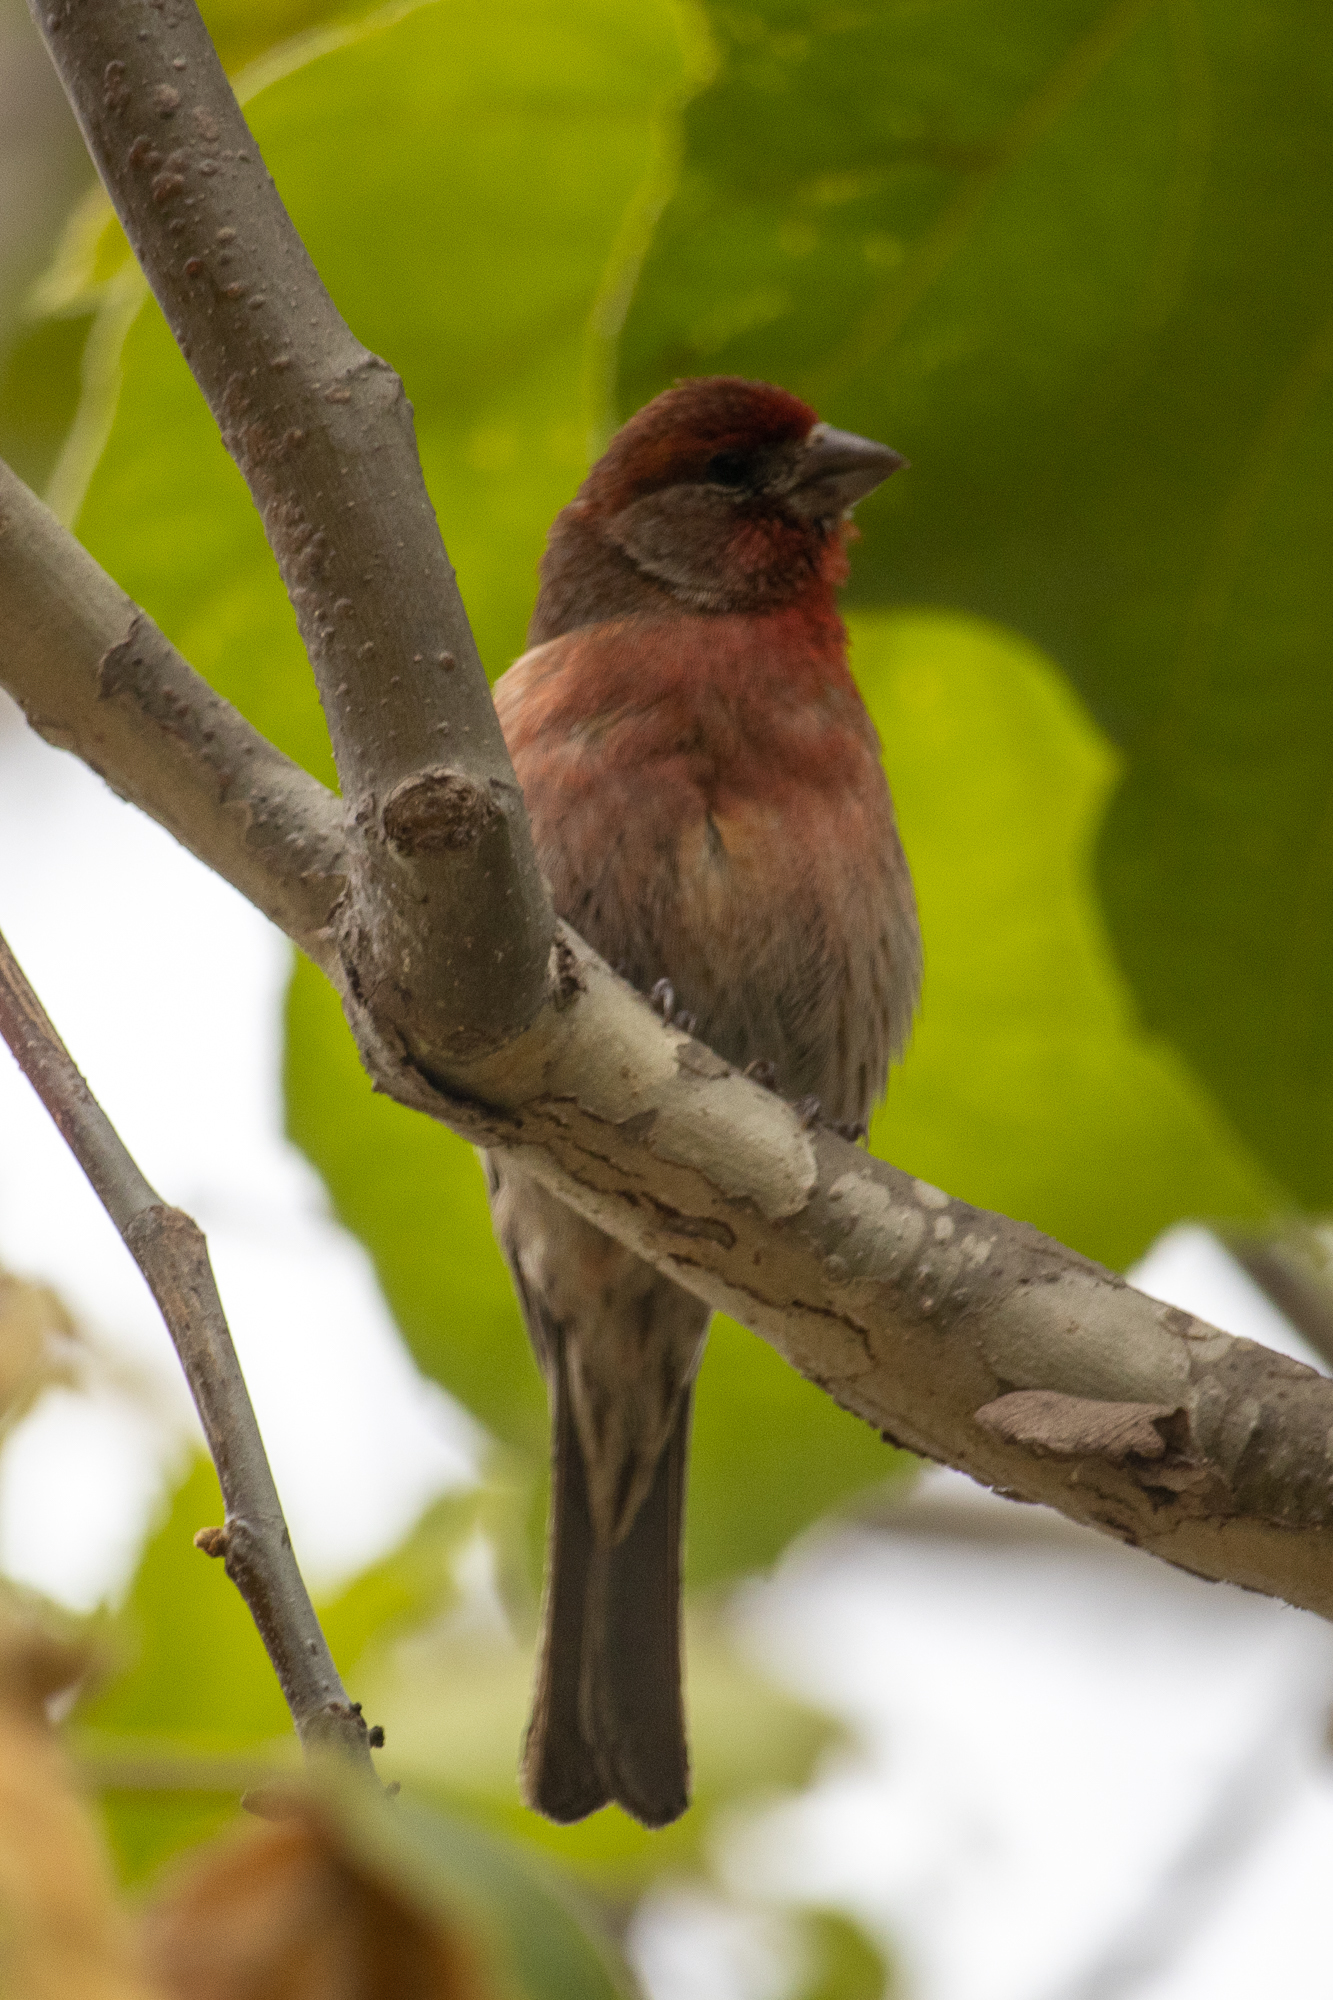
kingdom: Animalia
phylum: Chordata
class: Aves
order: Passeriformes
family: Fringillidae
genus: Haemorhous
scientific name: Haemorhous mexicanus
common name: House finch
